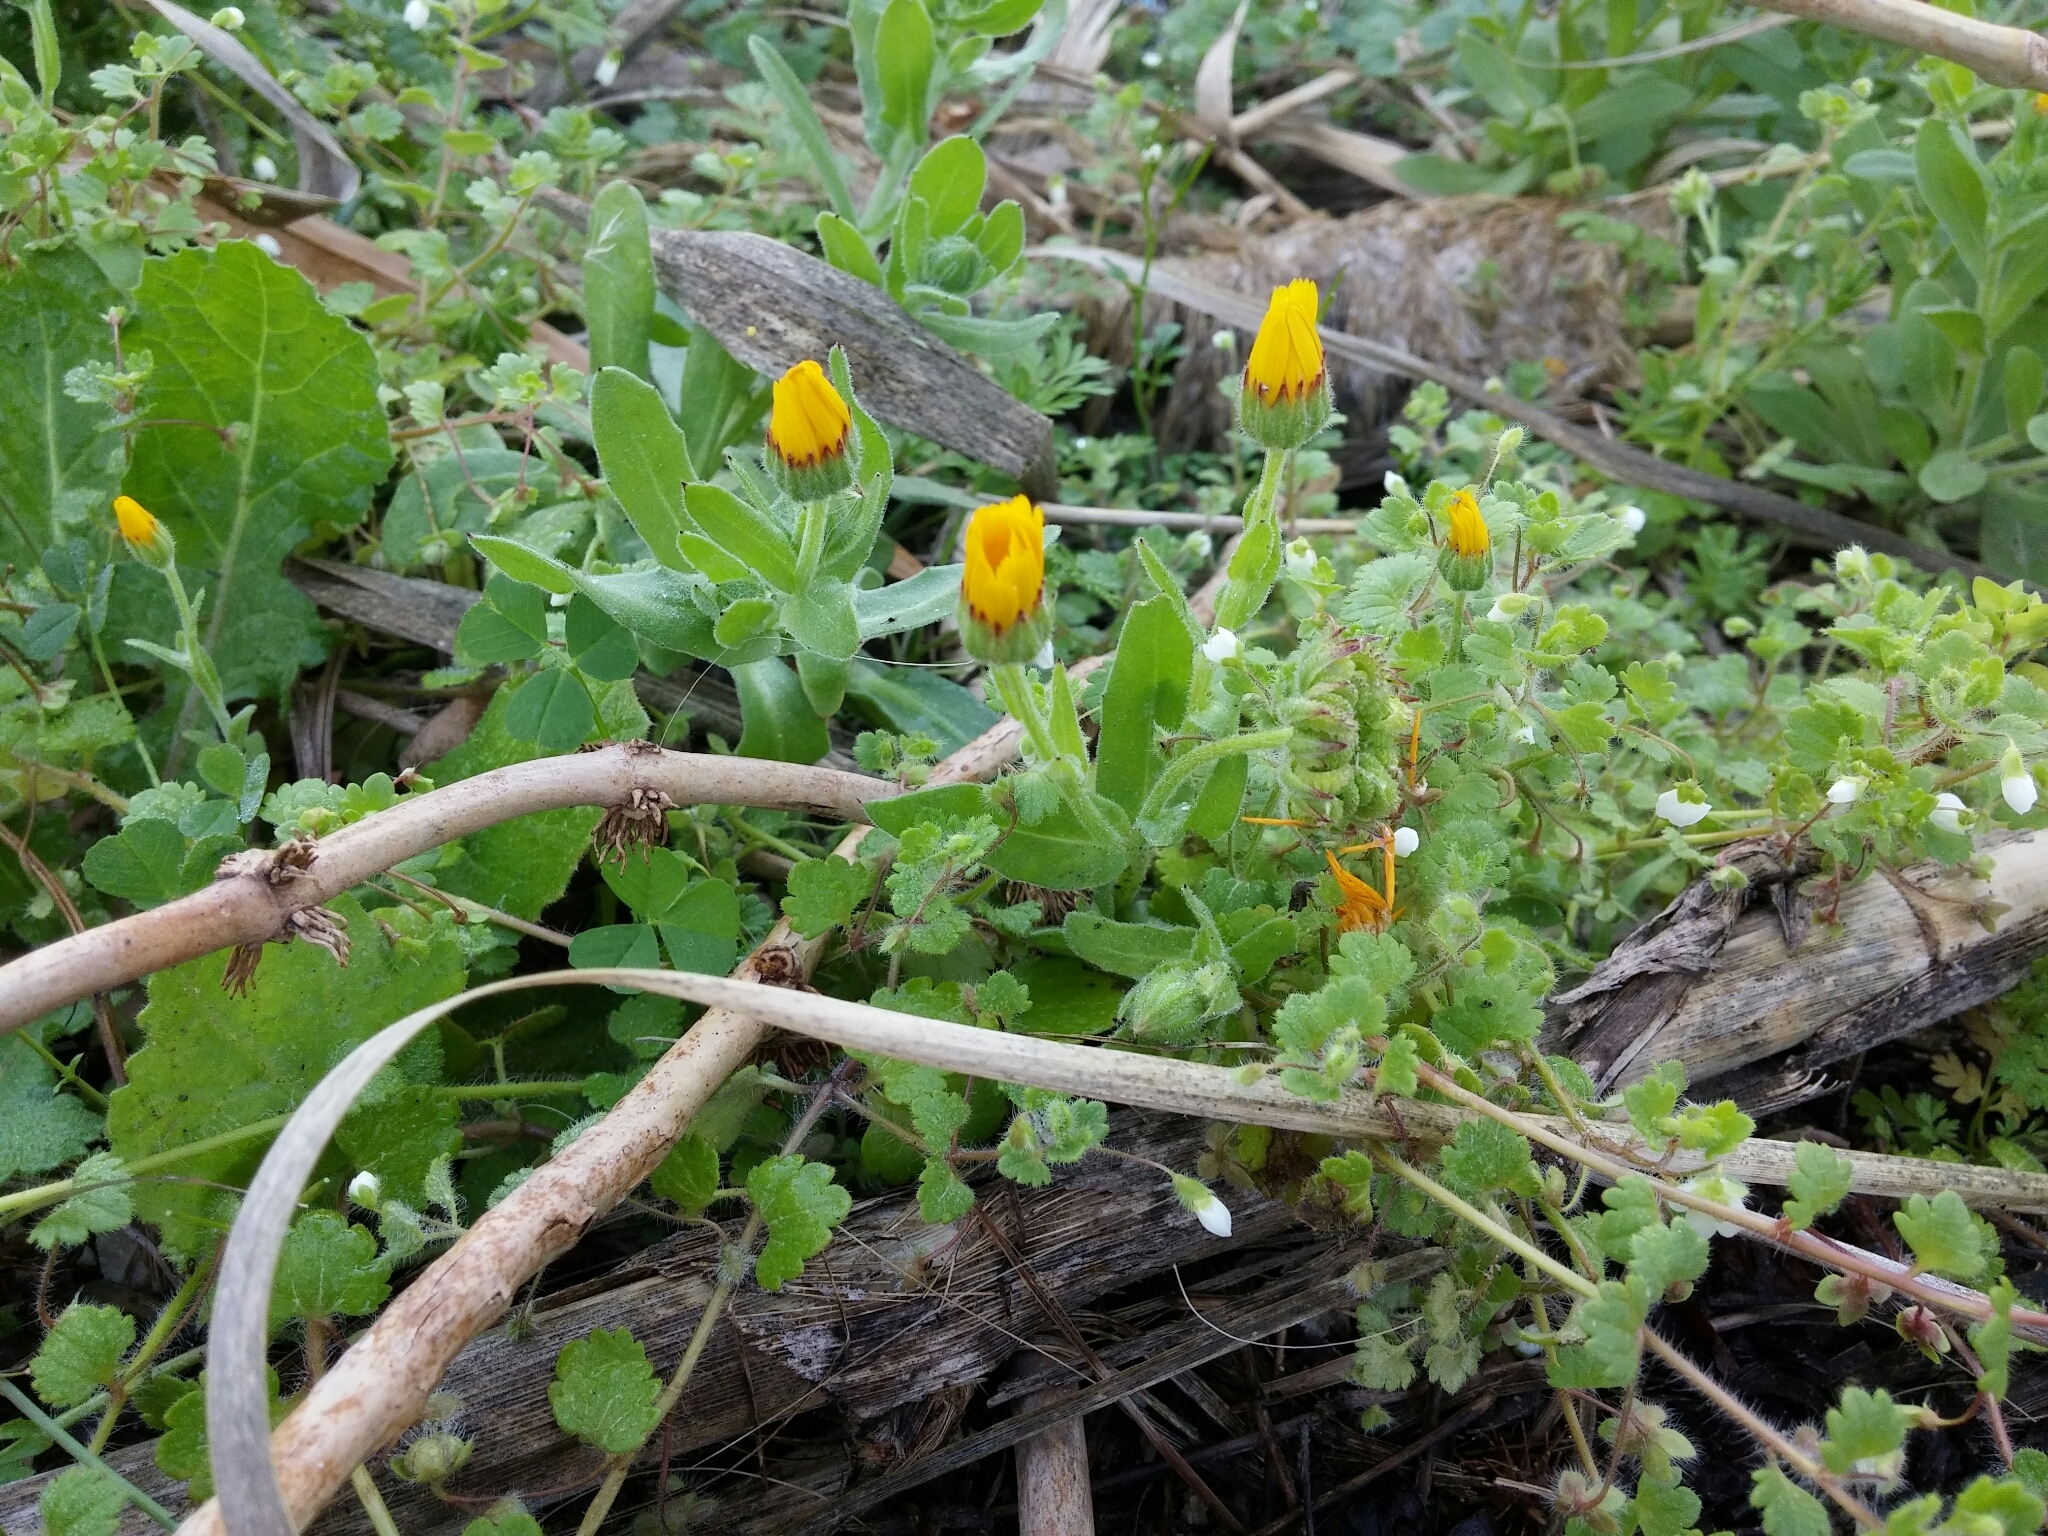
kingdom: Plantae
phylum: Tracheophyta
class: Magnoliopsida
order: Asterales
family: Asteraceae
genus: Calendula
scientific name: Calendula arvensis
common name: Field marigold
